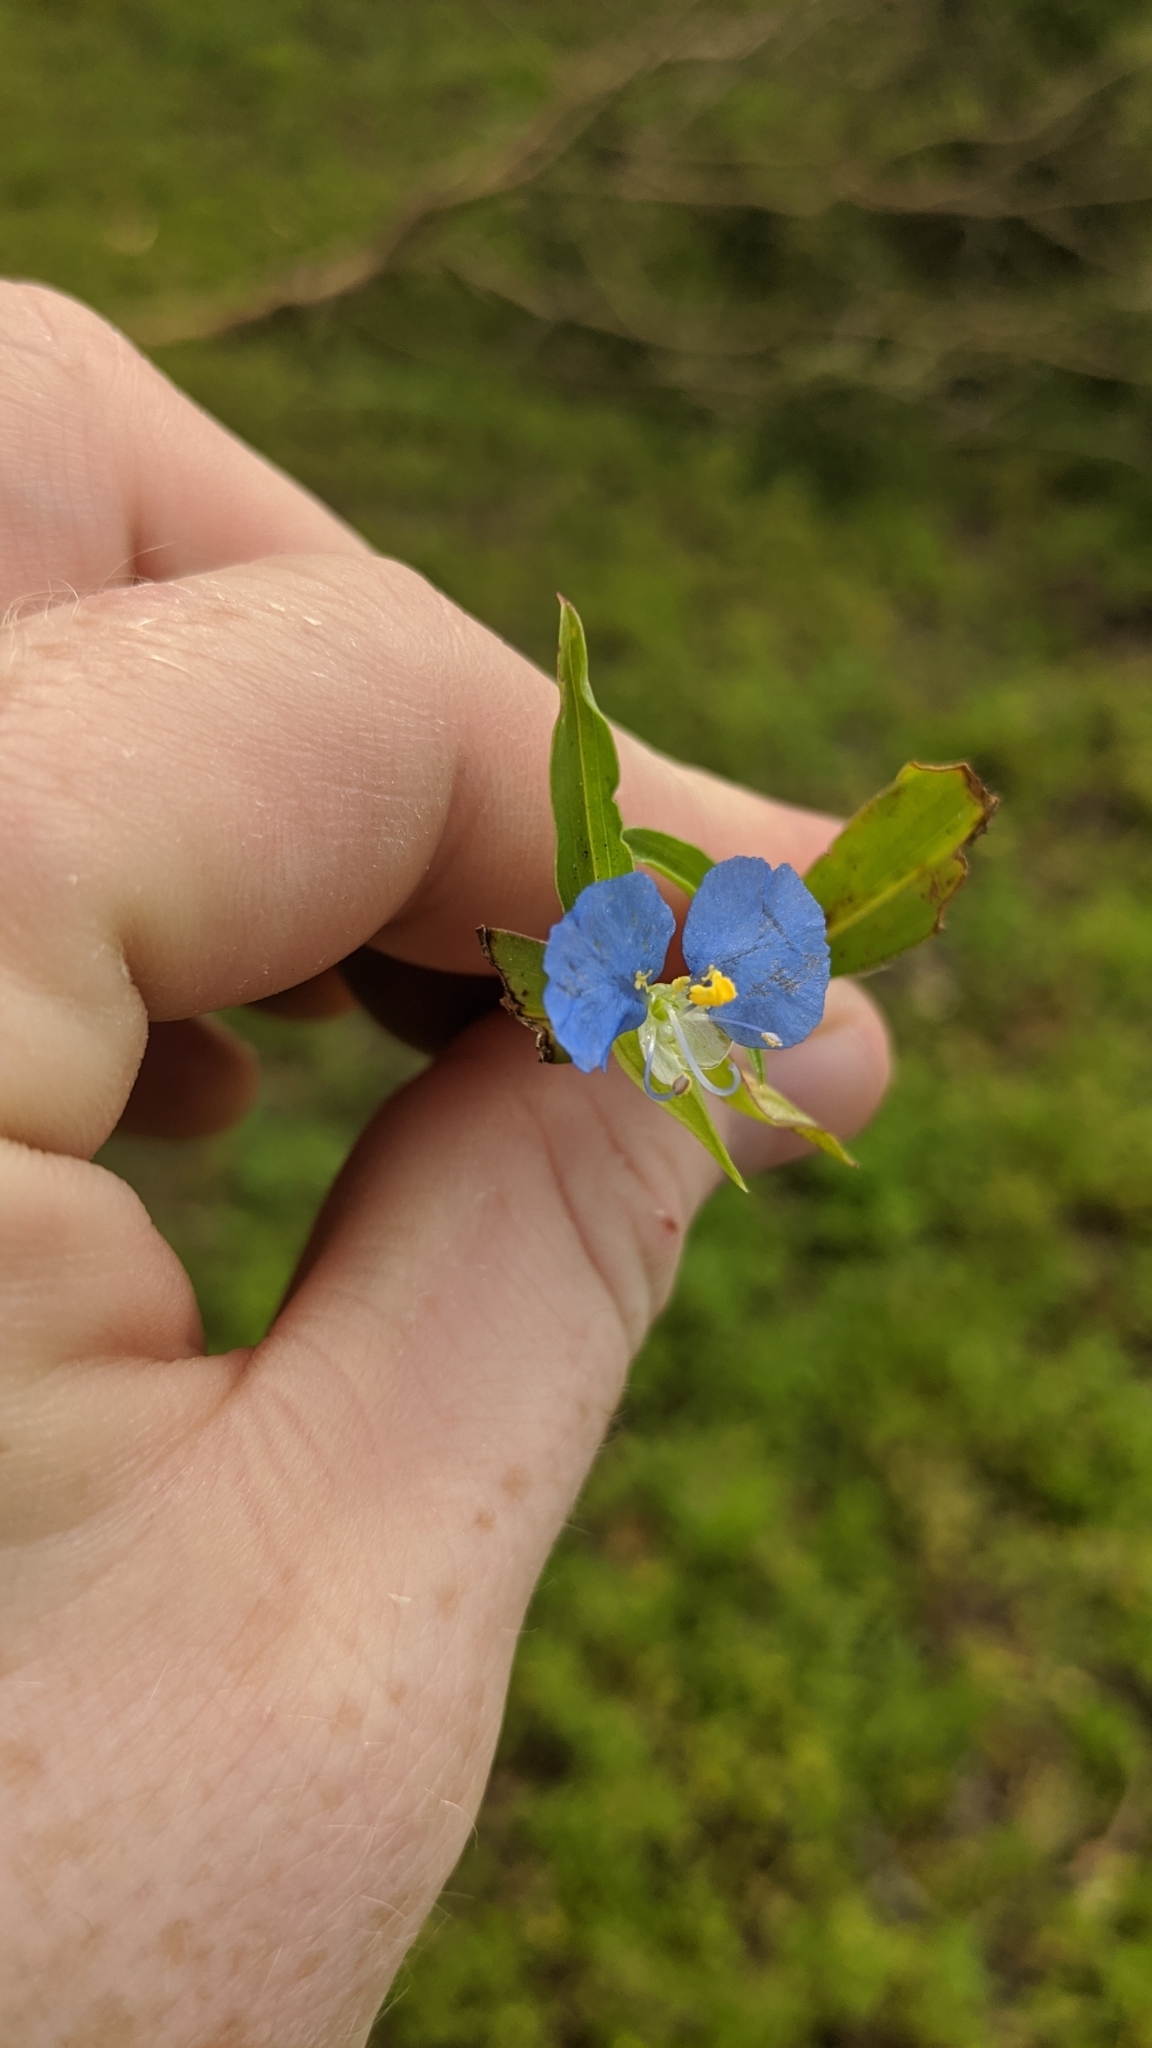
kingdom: Plantae
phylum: Tracheophyta
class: Liliopsida
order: Commelinales
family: Commelinaceae
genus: Commelina
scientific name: Commelina erecta
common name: Blousel blommetjie
